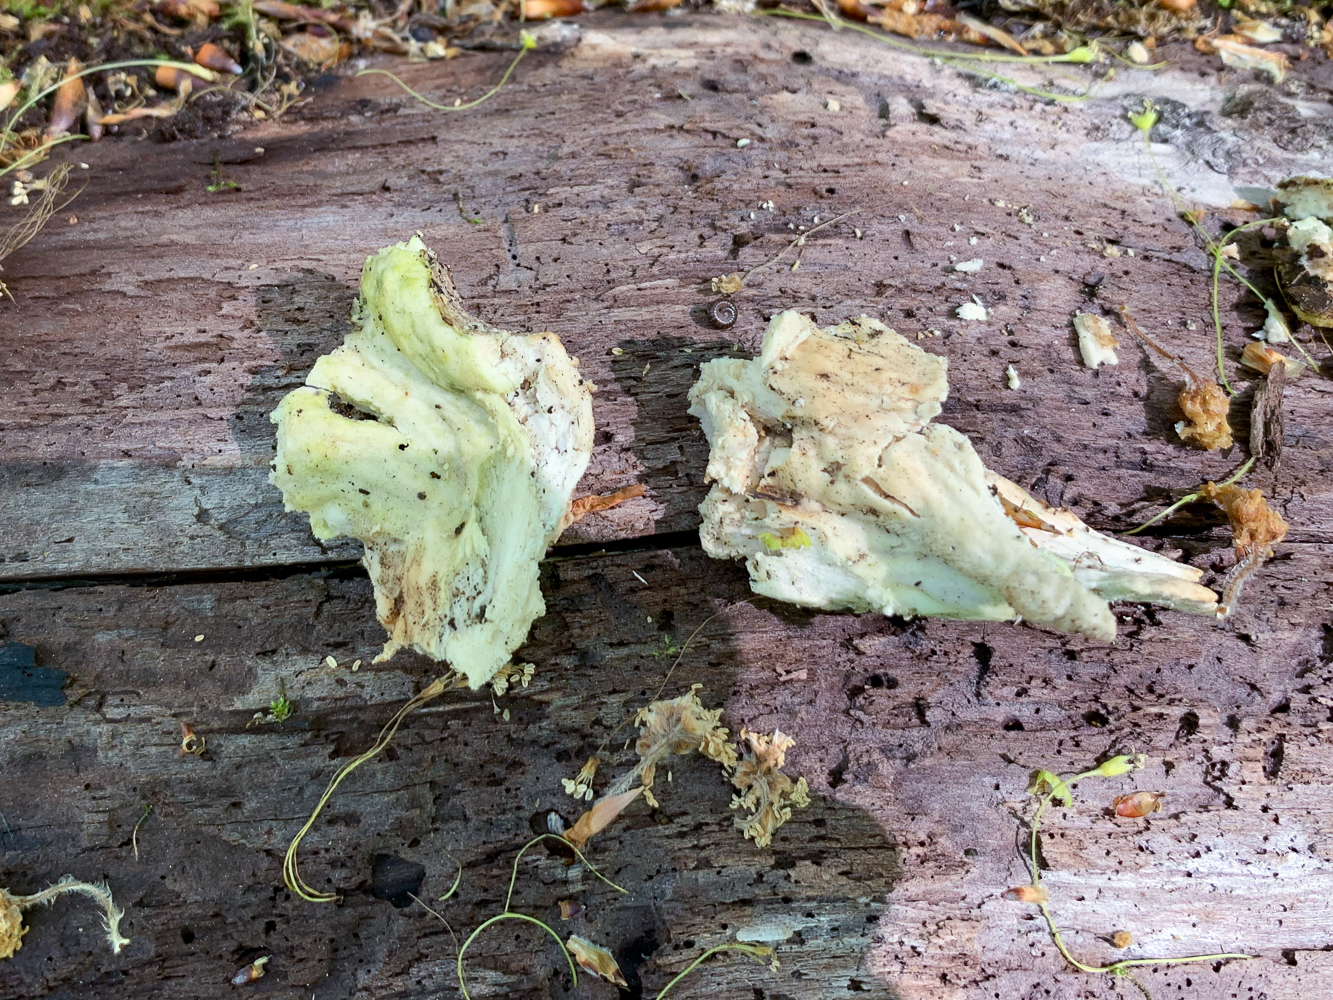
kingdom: Fungi
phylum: Basidiomycota
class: Agaricomycetes
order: Polyporales
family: Laetiporaceae
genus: Laetiporus
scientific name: Laetiporus sulphureus
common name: Chicken of the woods
